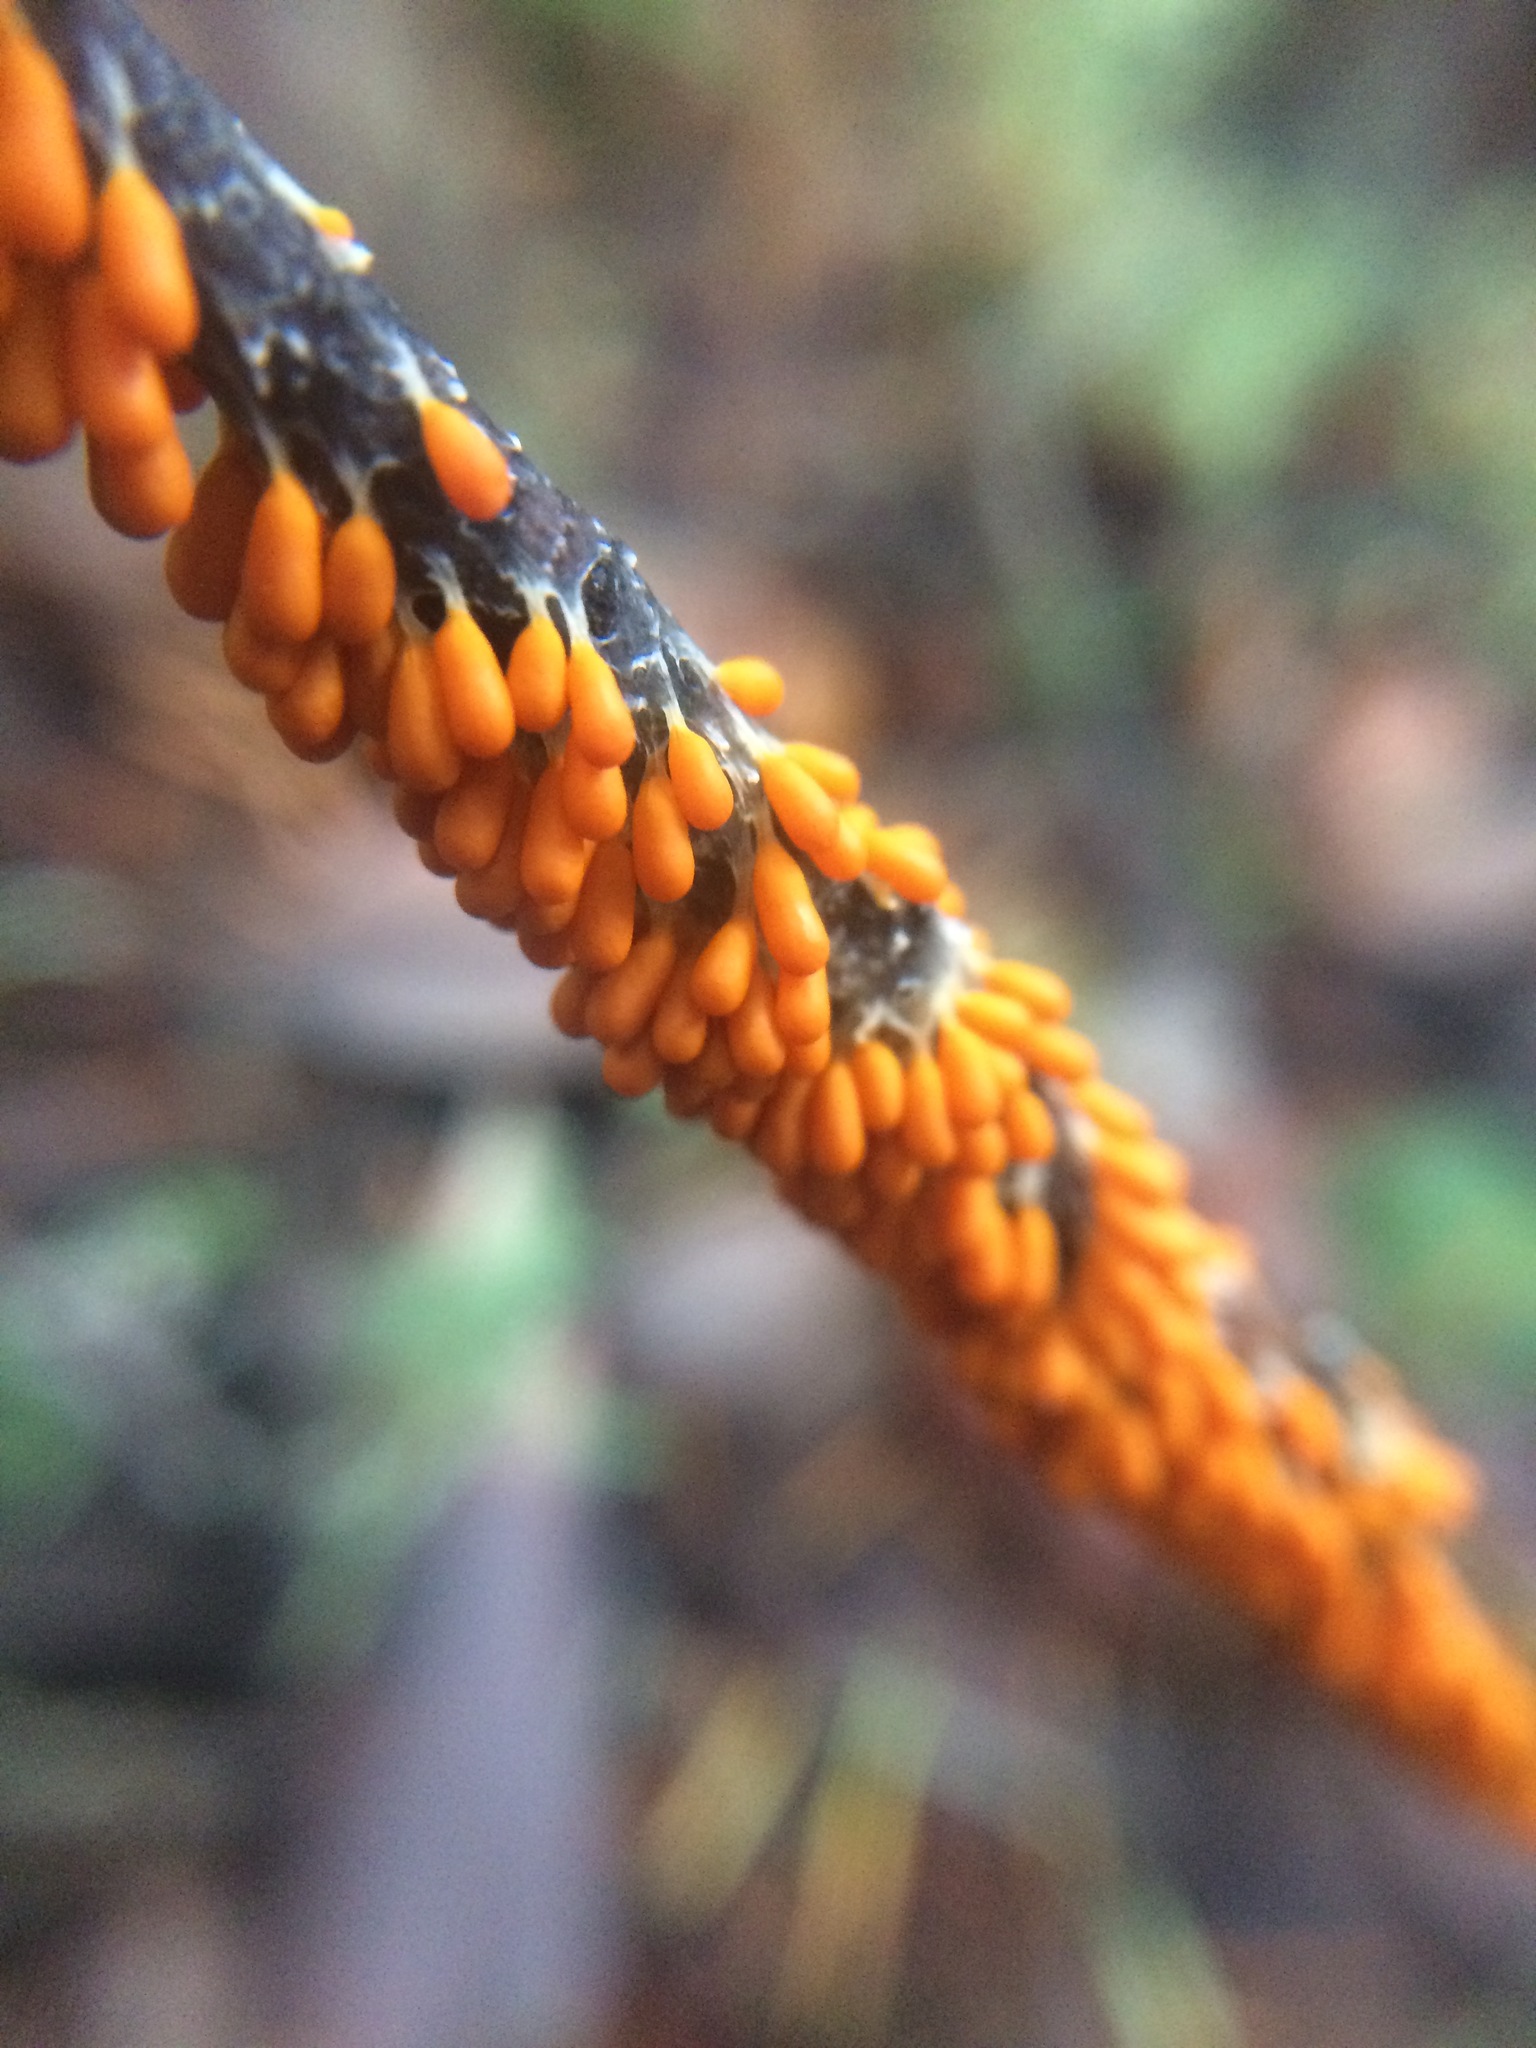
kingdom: Protozoa
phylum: Mycetozoa
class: Myxomycetes
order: Physarales
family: Physaraceae
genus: Leocarpus
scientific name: Leocarpus fragilis
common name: Insect-egg slime
